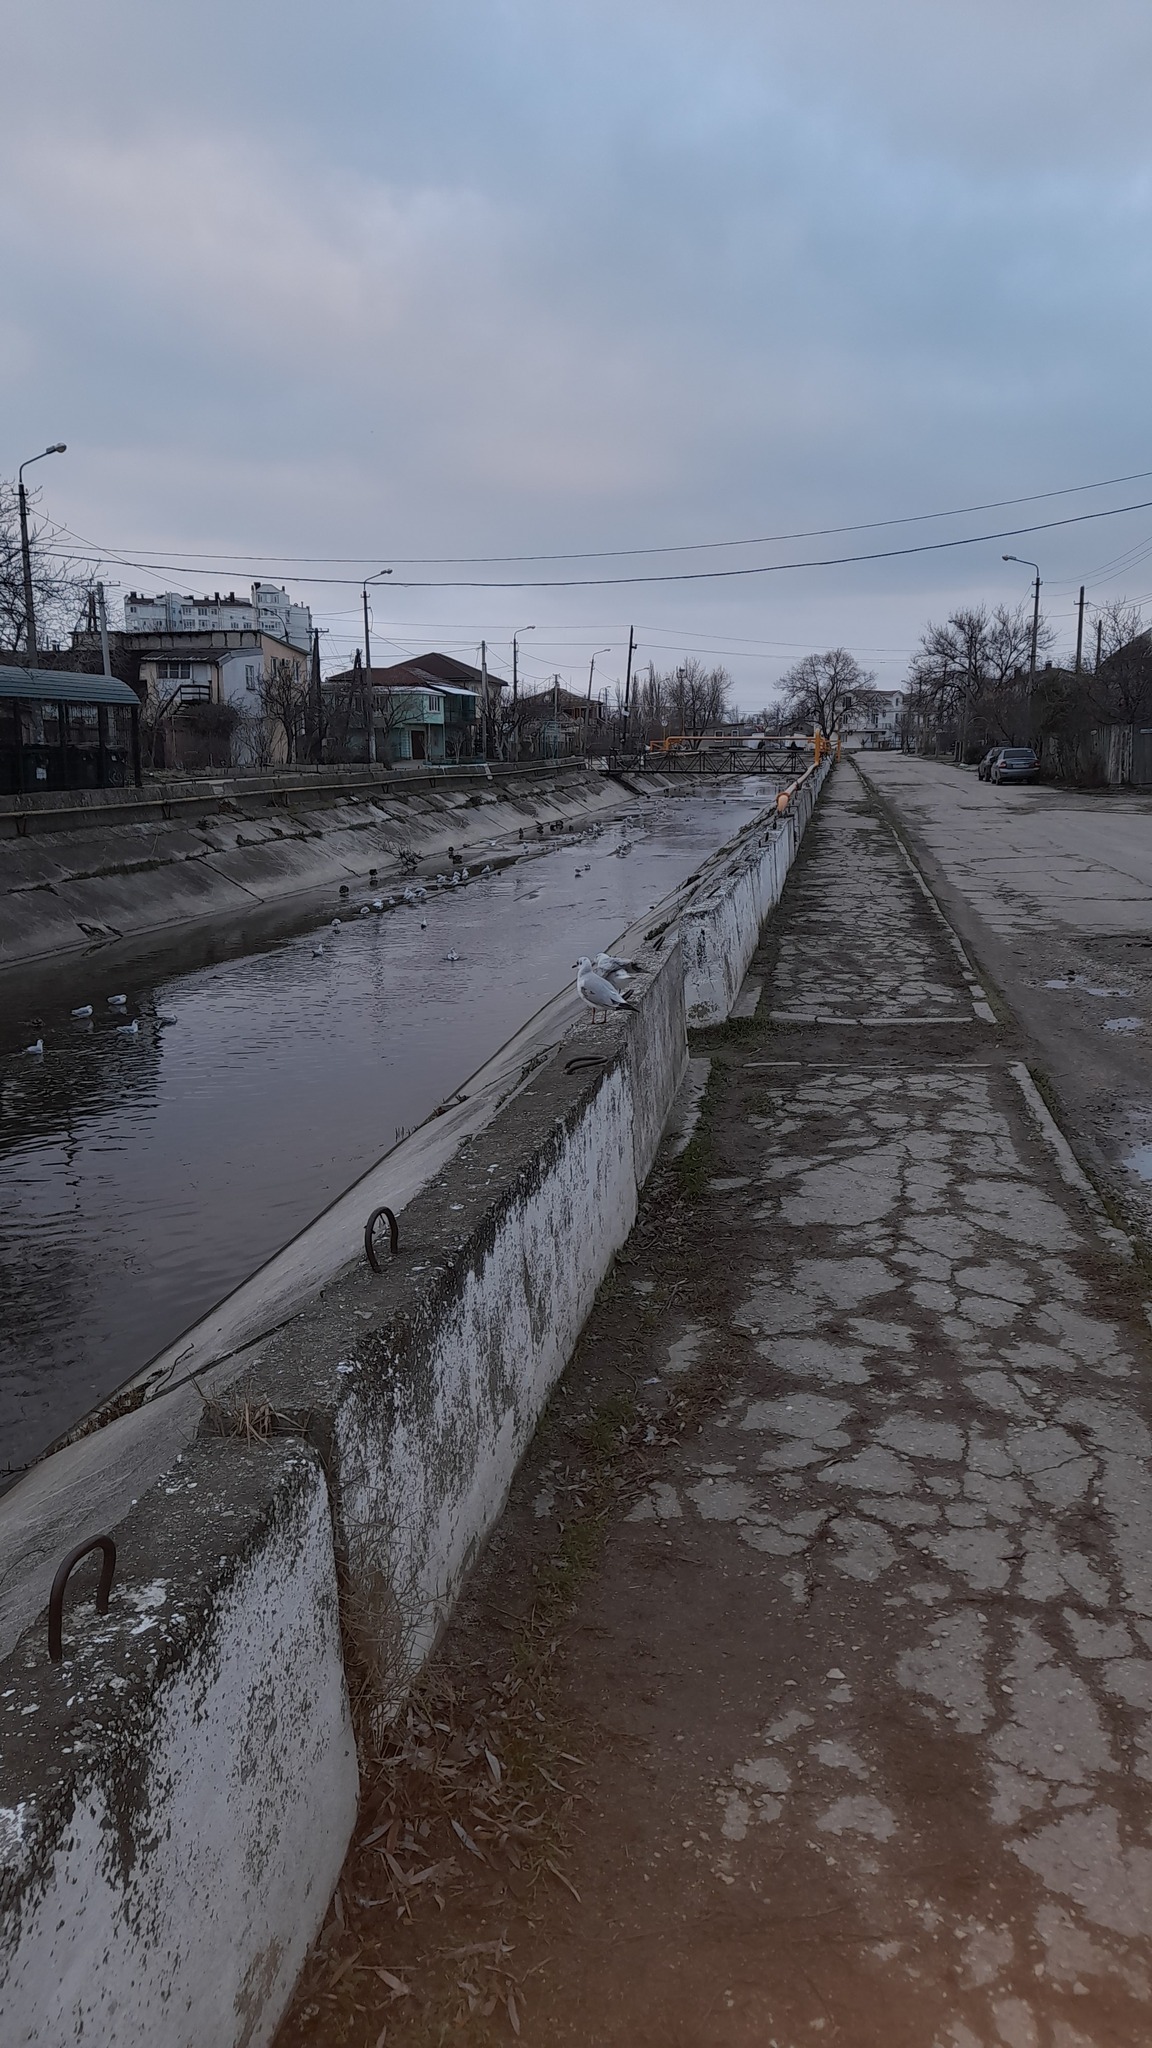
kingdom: Animalia
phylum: Chordata
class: Aves
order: Charadriiformes
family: Laridae
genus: Chroicocephalus
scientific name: Chroicocephalus ridibundus
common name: Black-headed gull
